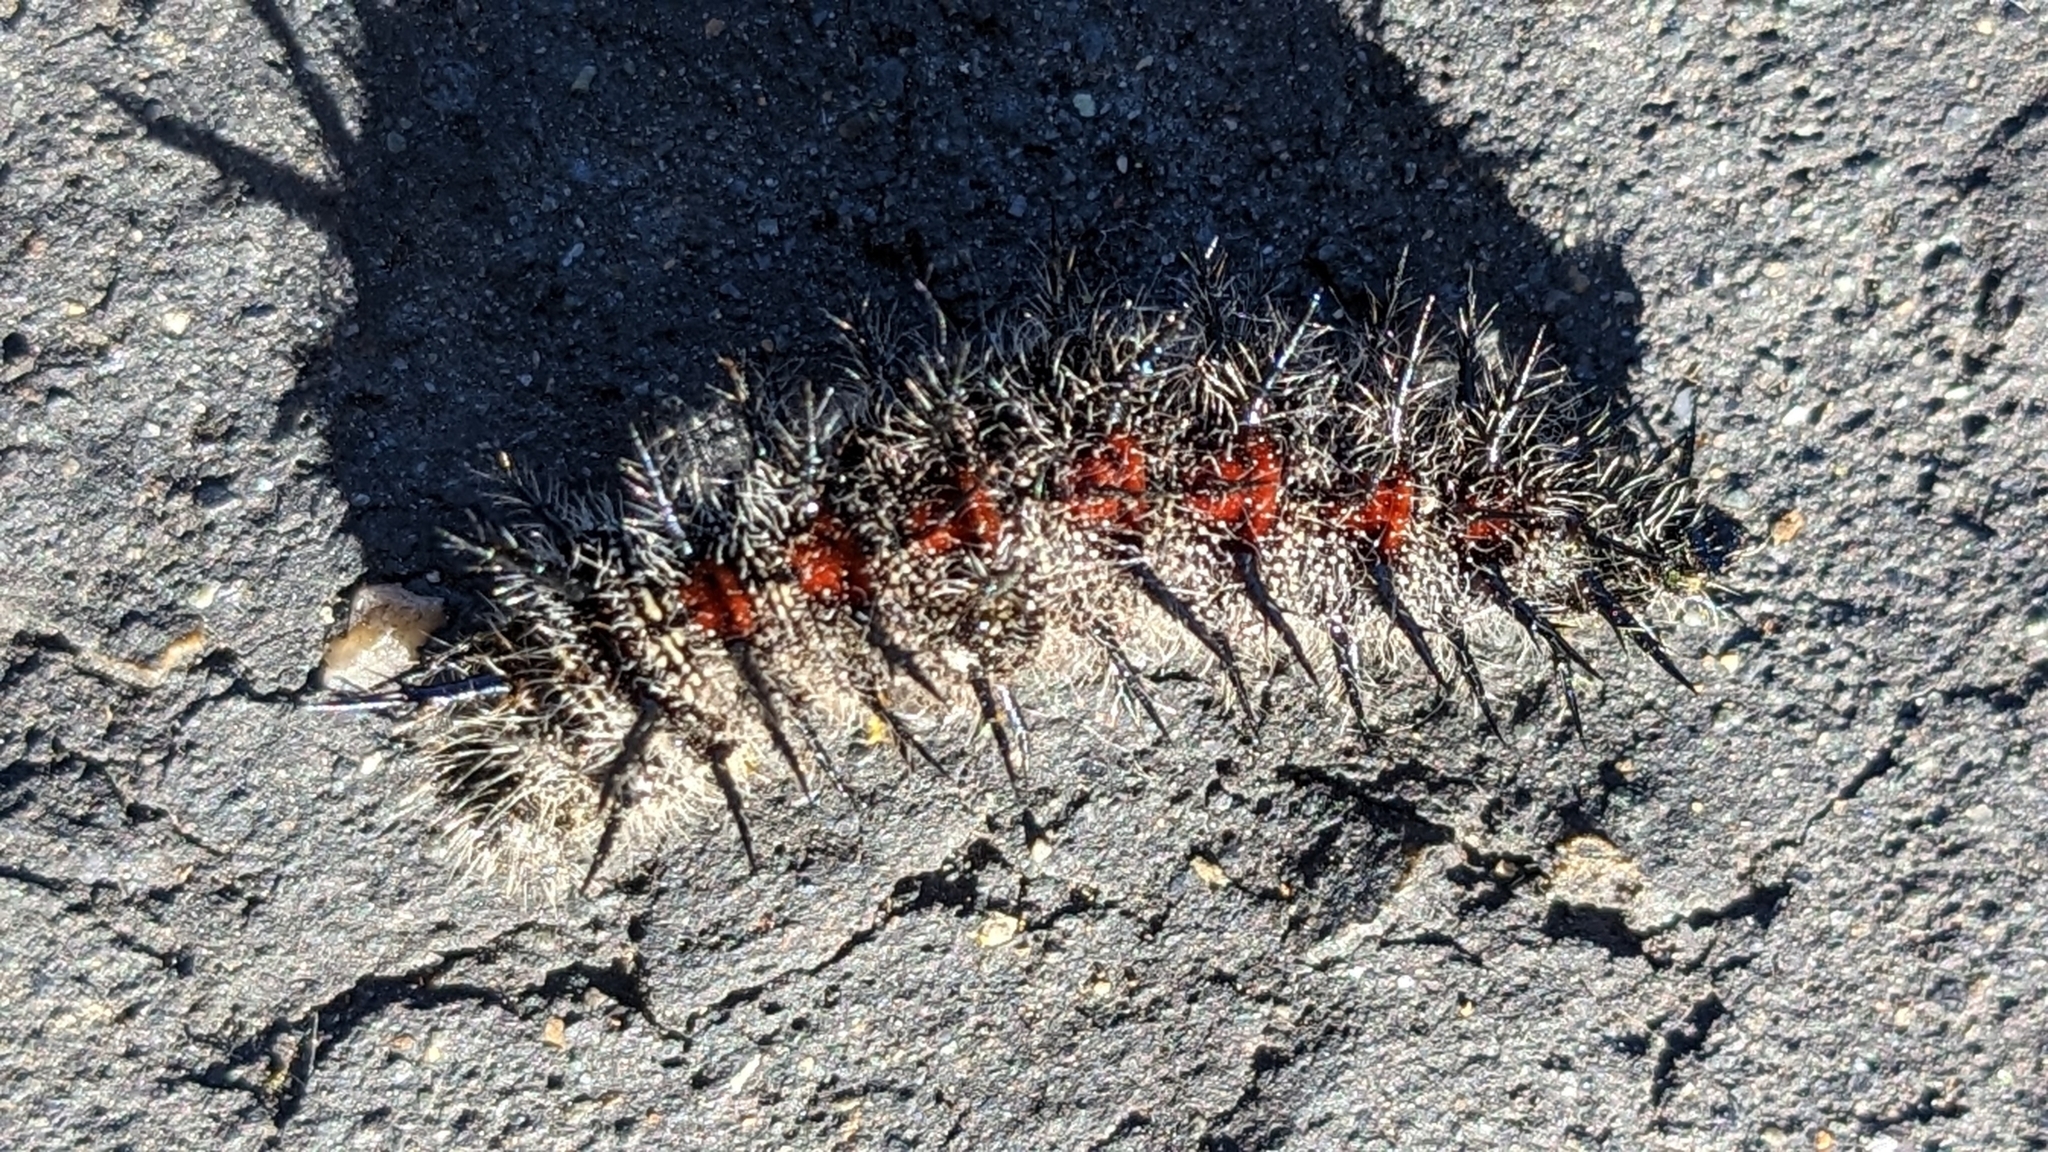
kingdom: Animalia
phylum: Arthropoda
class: Insecta
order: Lepidoptera
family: Nymphalidae
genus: Nymphalis
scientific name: Nymphalis antiopa
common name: Camberwell beauty
